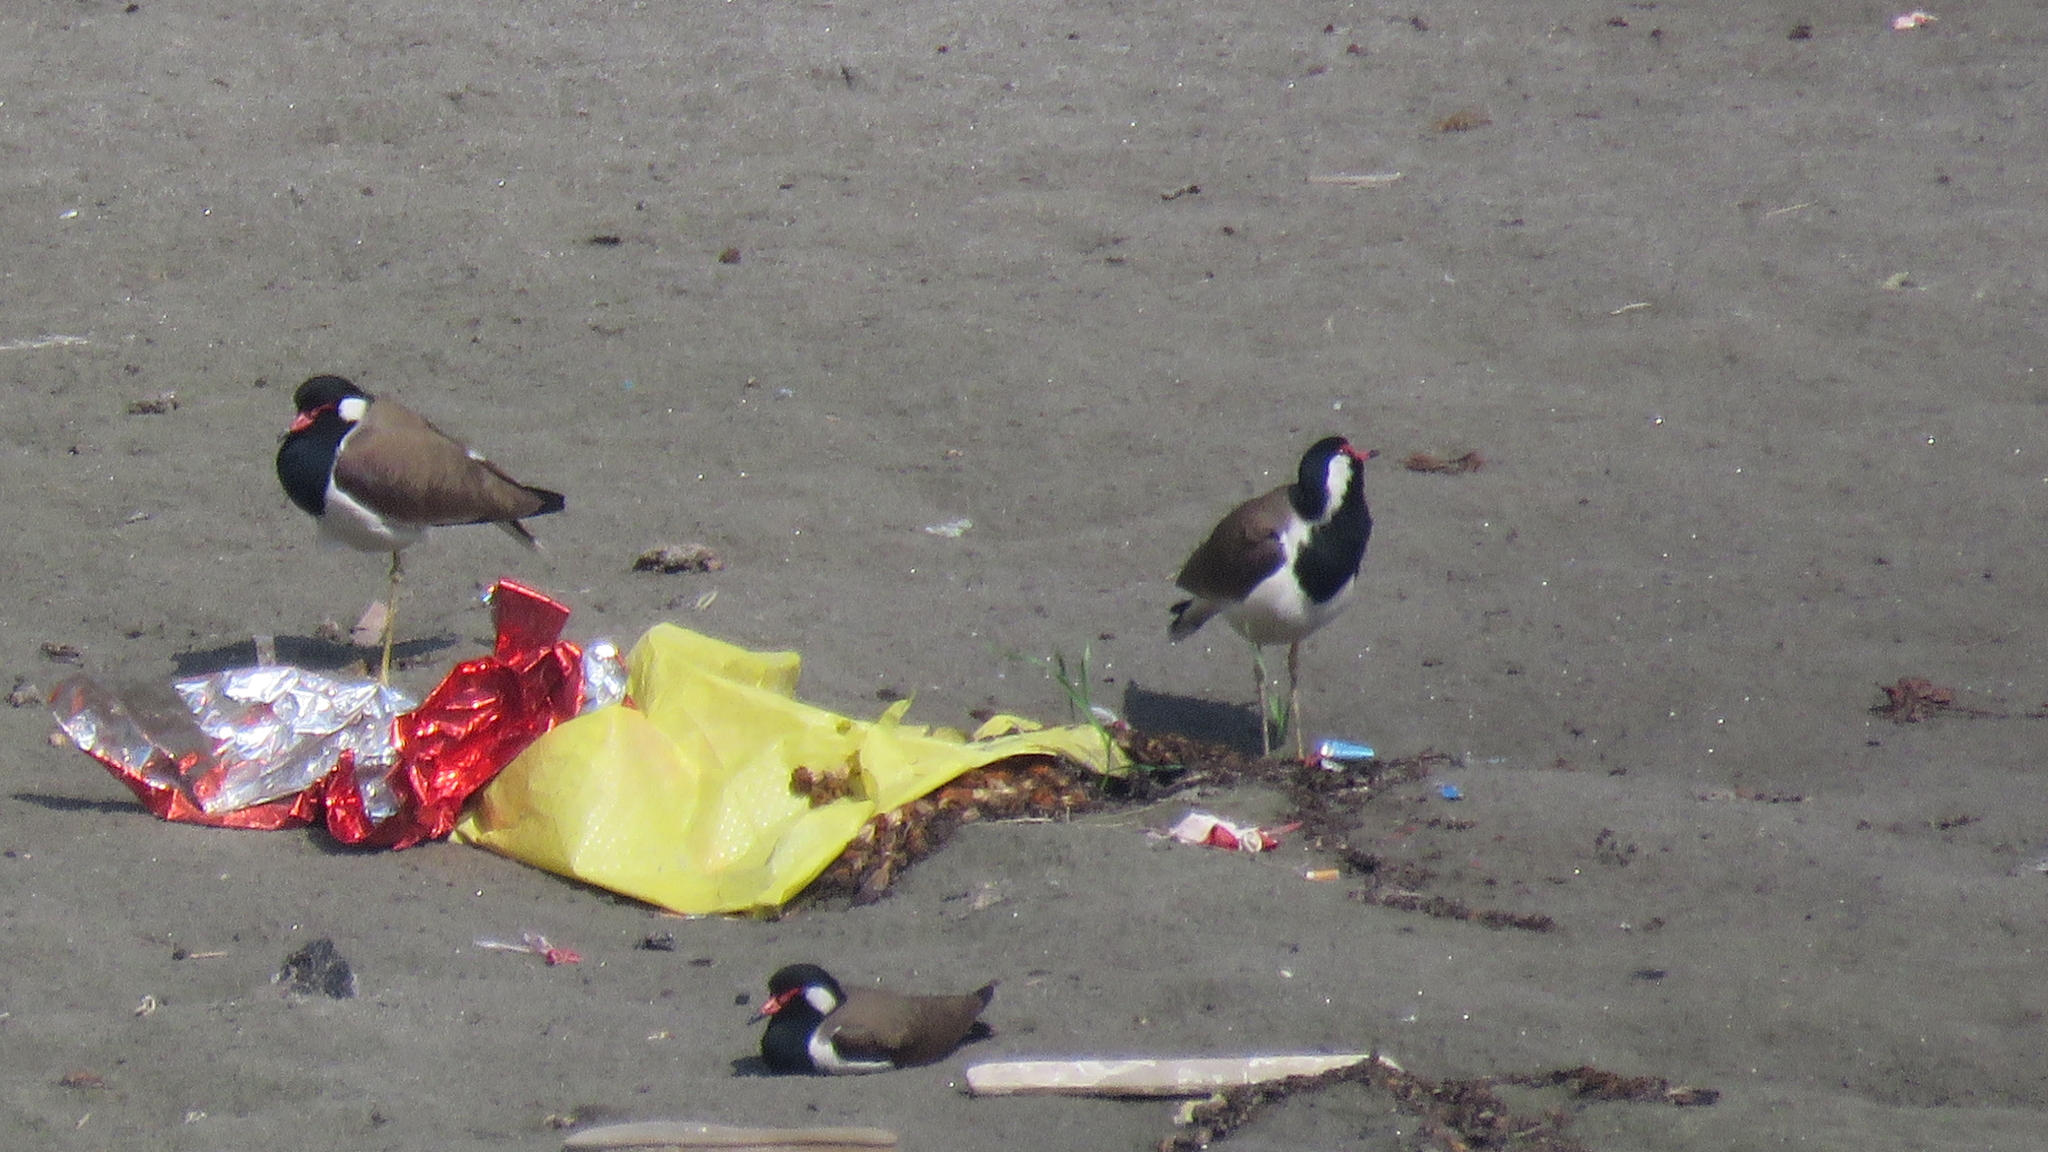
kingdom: Animalia
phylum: Chordata
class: Aves
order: Charadriiformes
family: Charadriidae
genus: Vanellus
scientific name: Vanellus indicus
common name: Red-wattled lapwing
